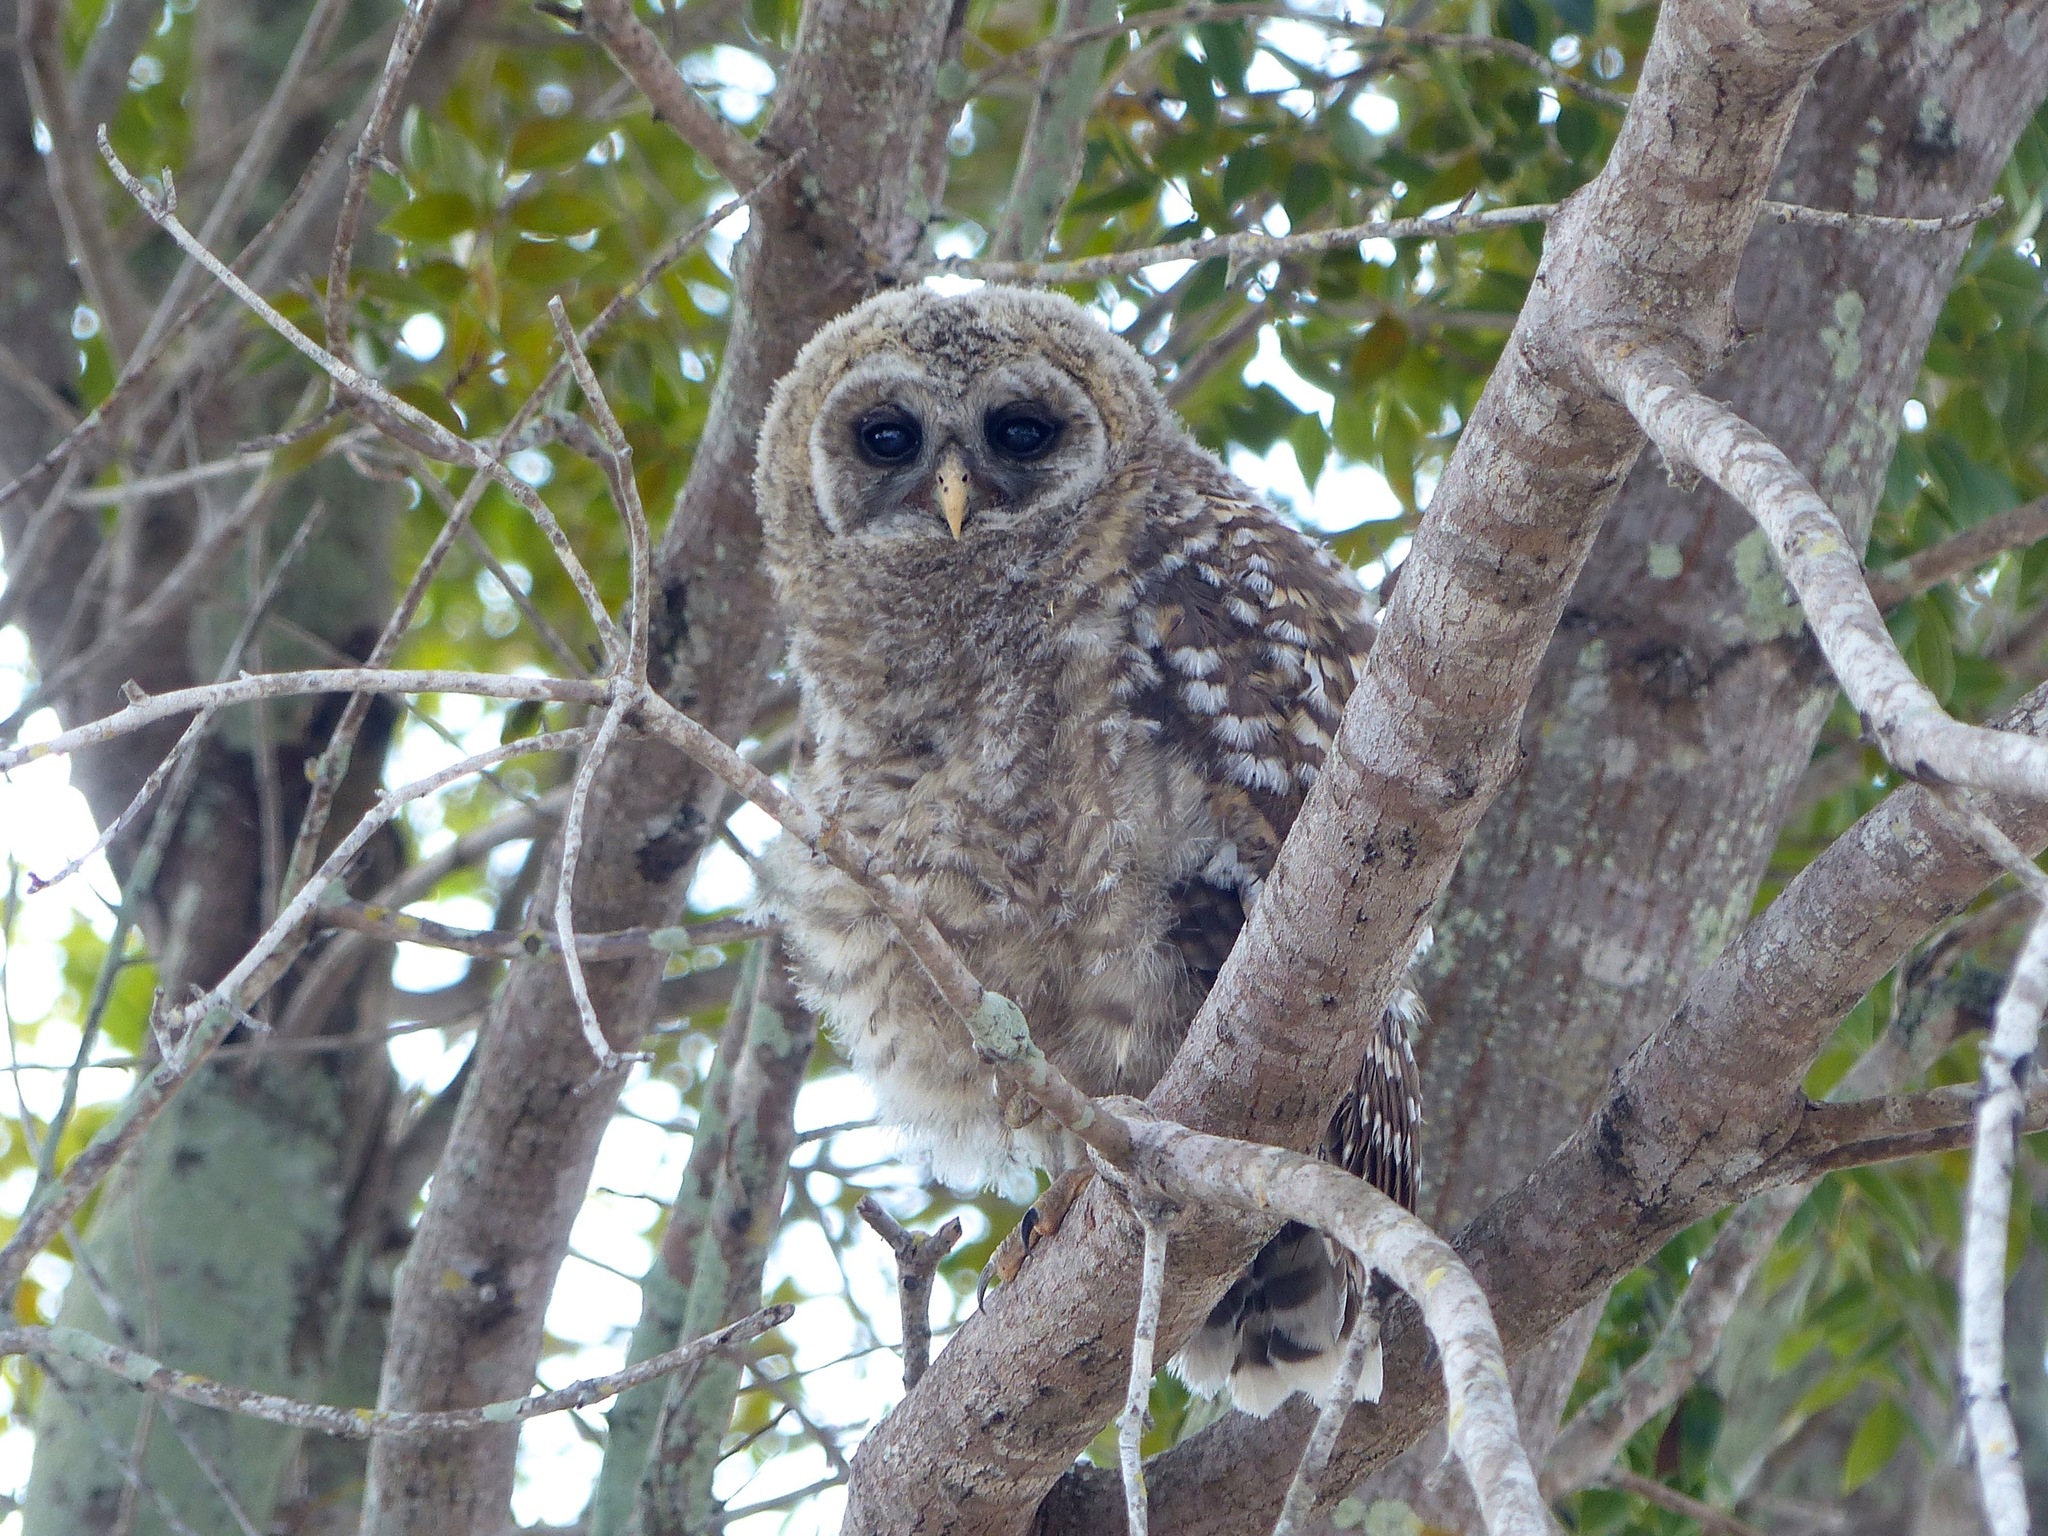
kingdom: Animalia
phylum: Chordata
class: Aves
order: Strigiformes
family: Strigidae
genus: Strix
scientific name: Strix varia
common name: Barred owl
